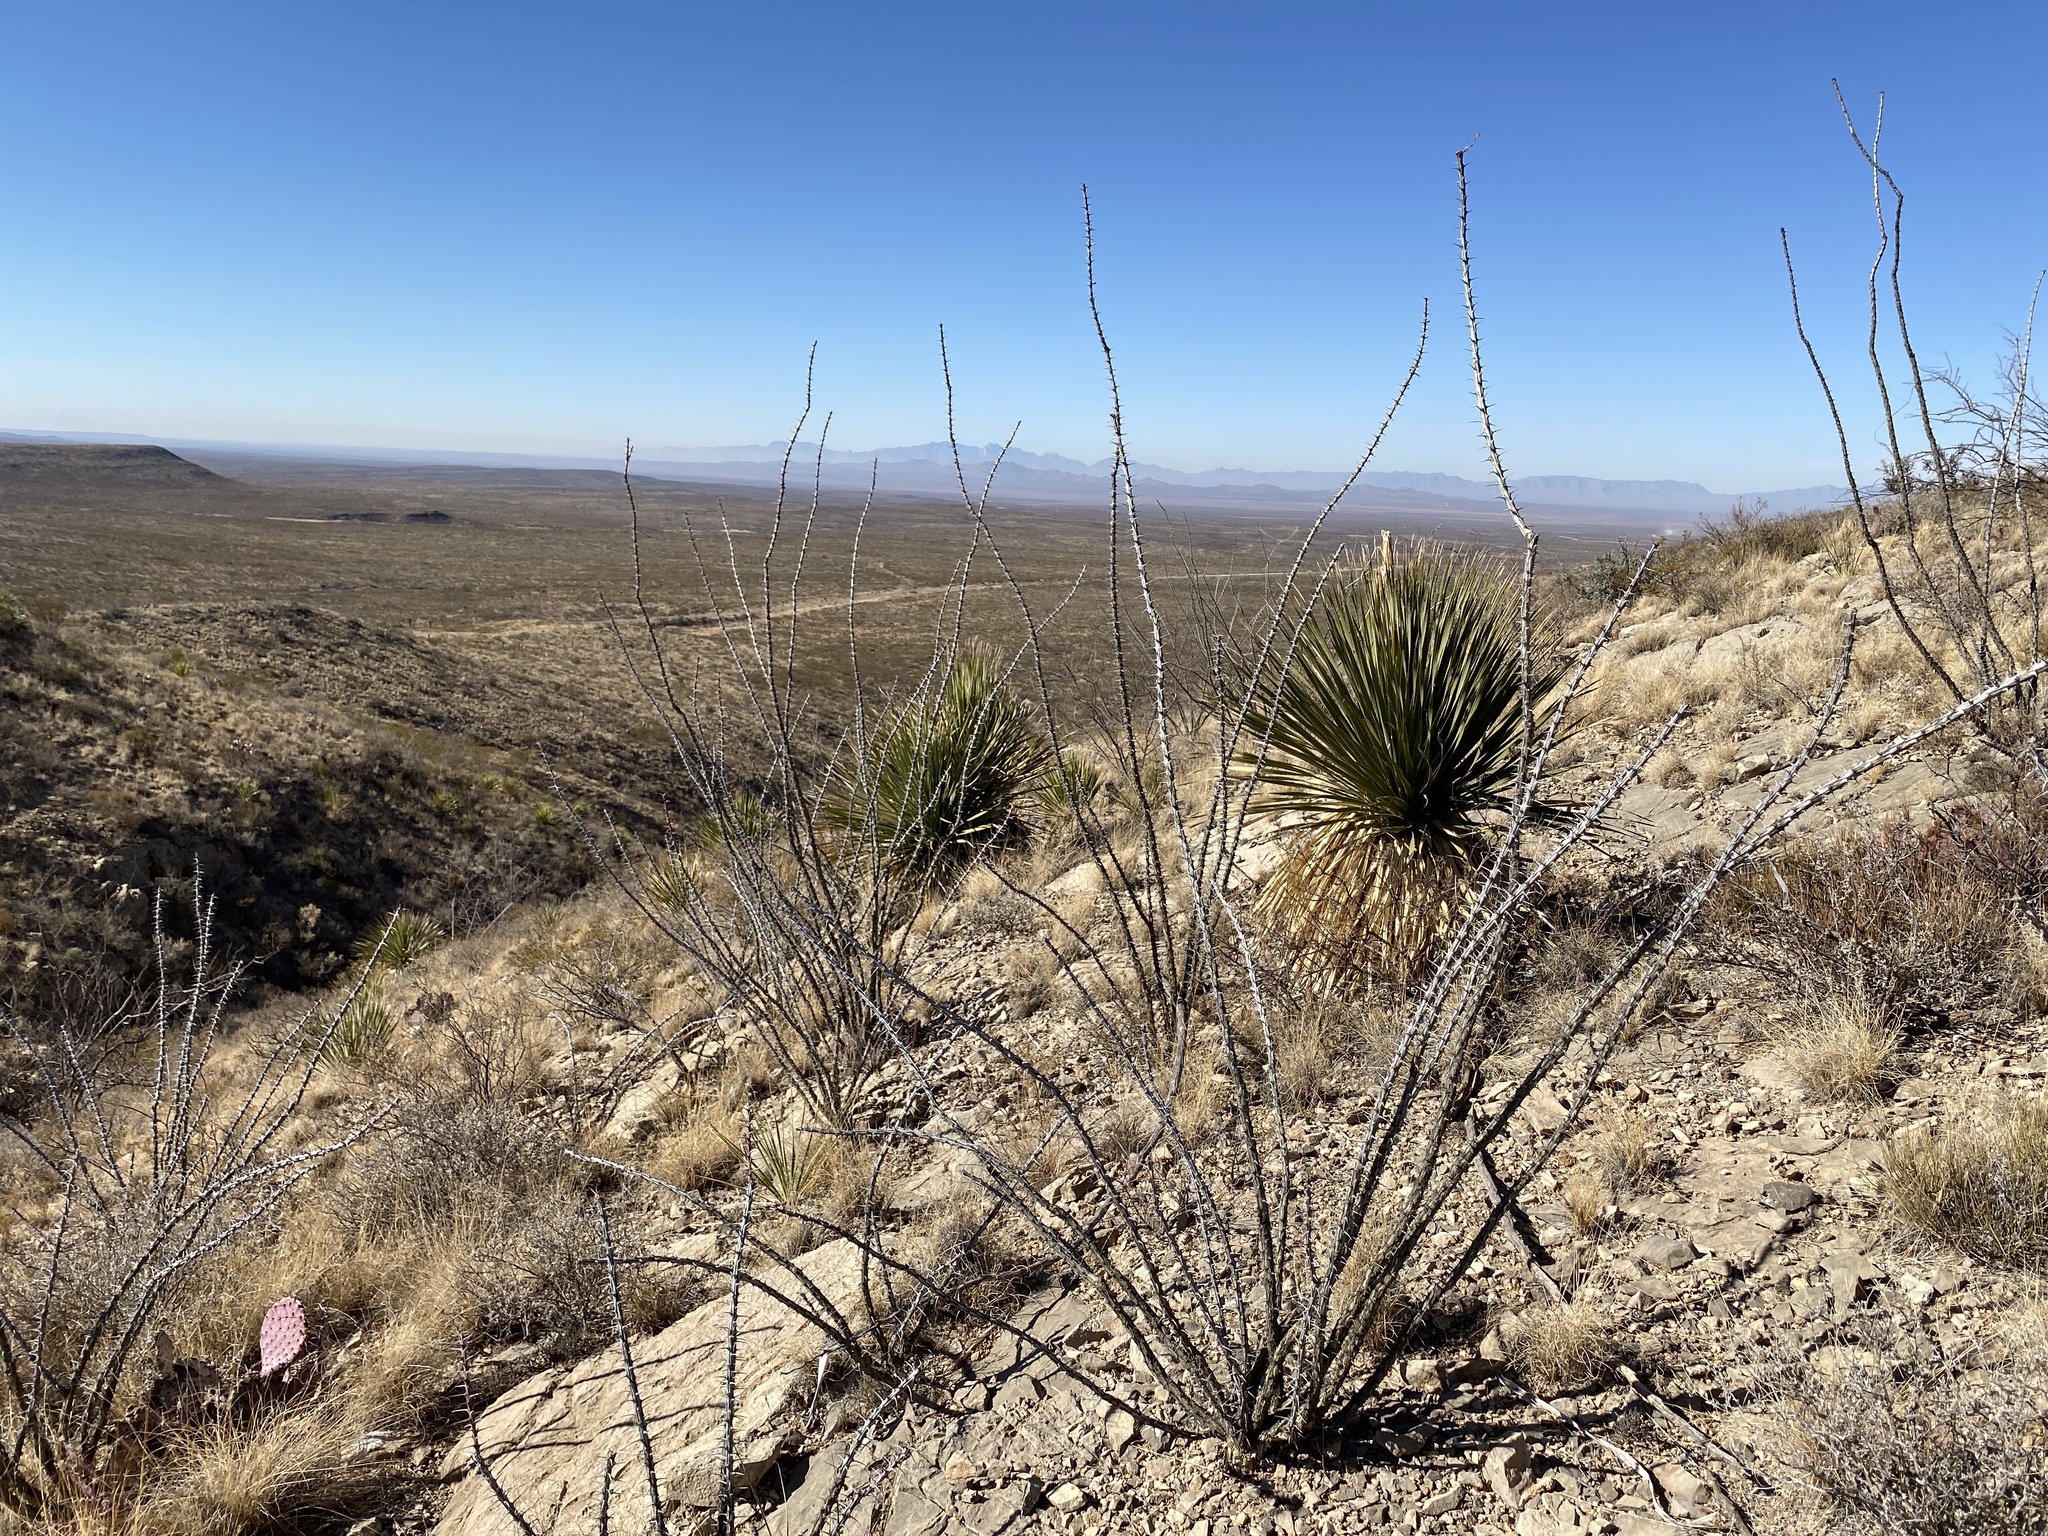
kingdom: Plantae
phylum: Tracheophyta
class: Magnoliopsida
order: Ericales
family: Fouquieriaceae
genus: Fouquieria
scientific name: Fouquieria splendens
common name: Vine-cactus
